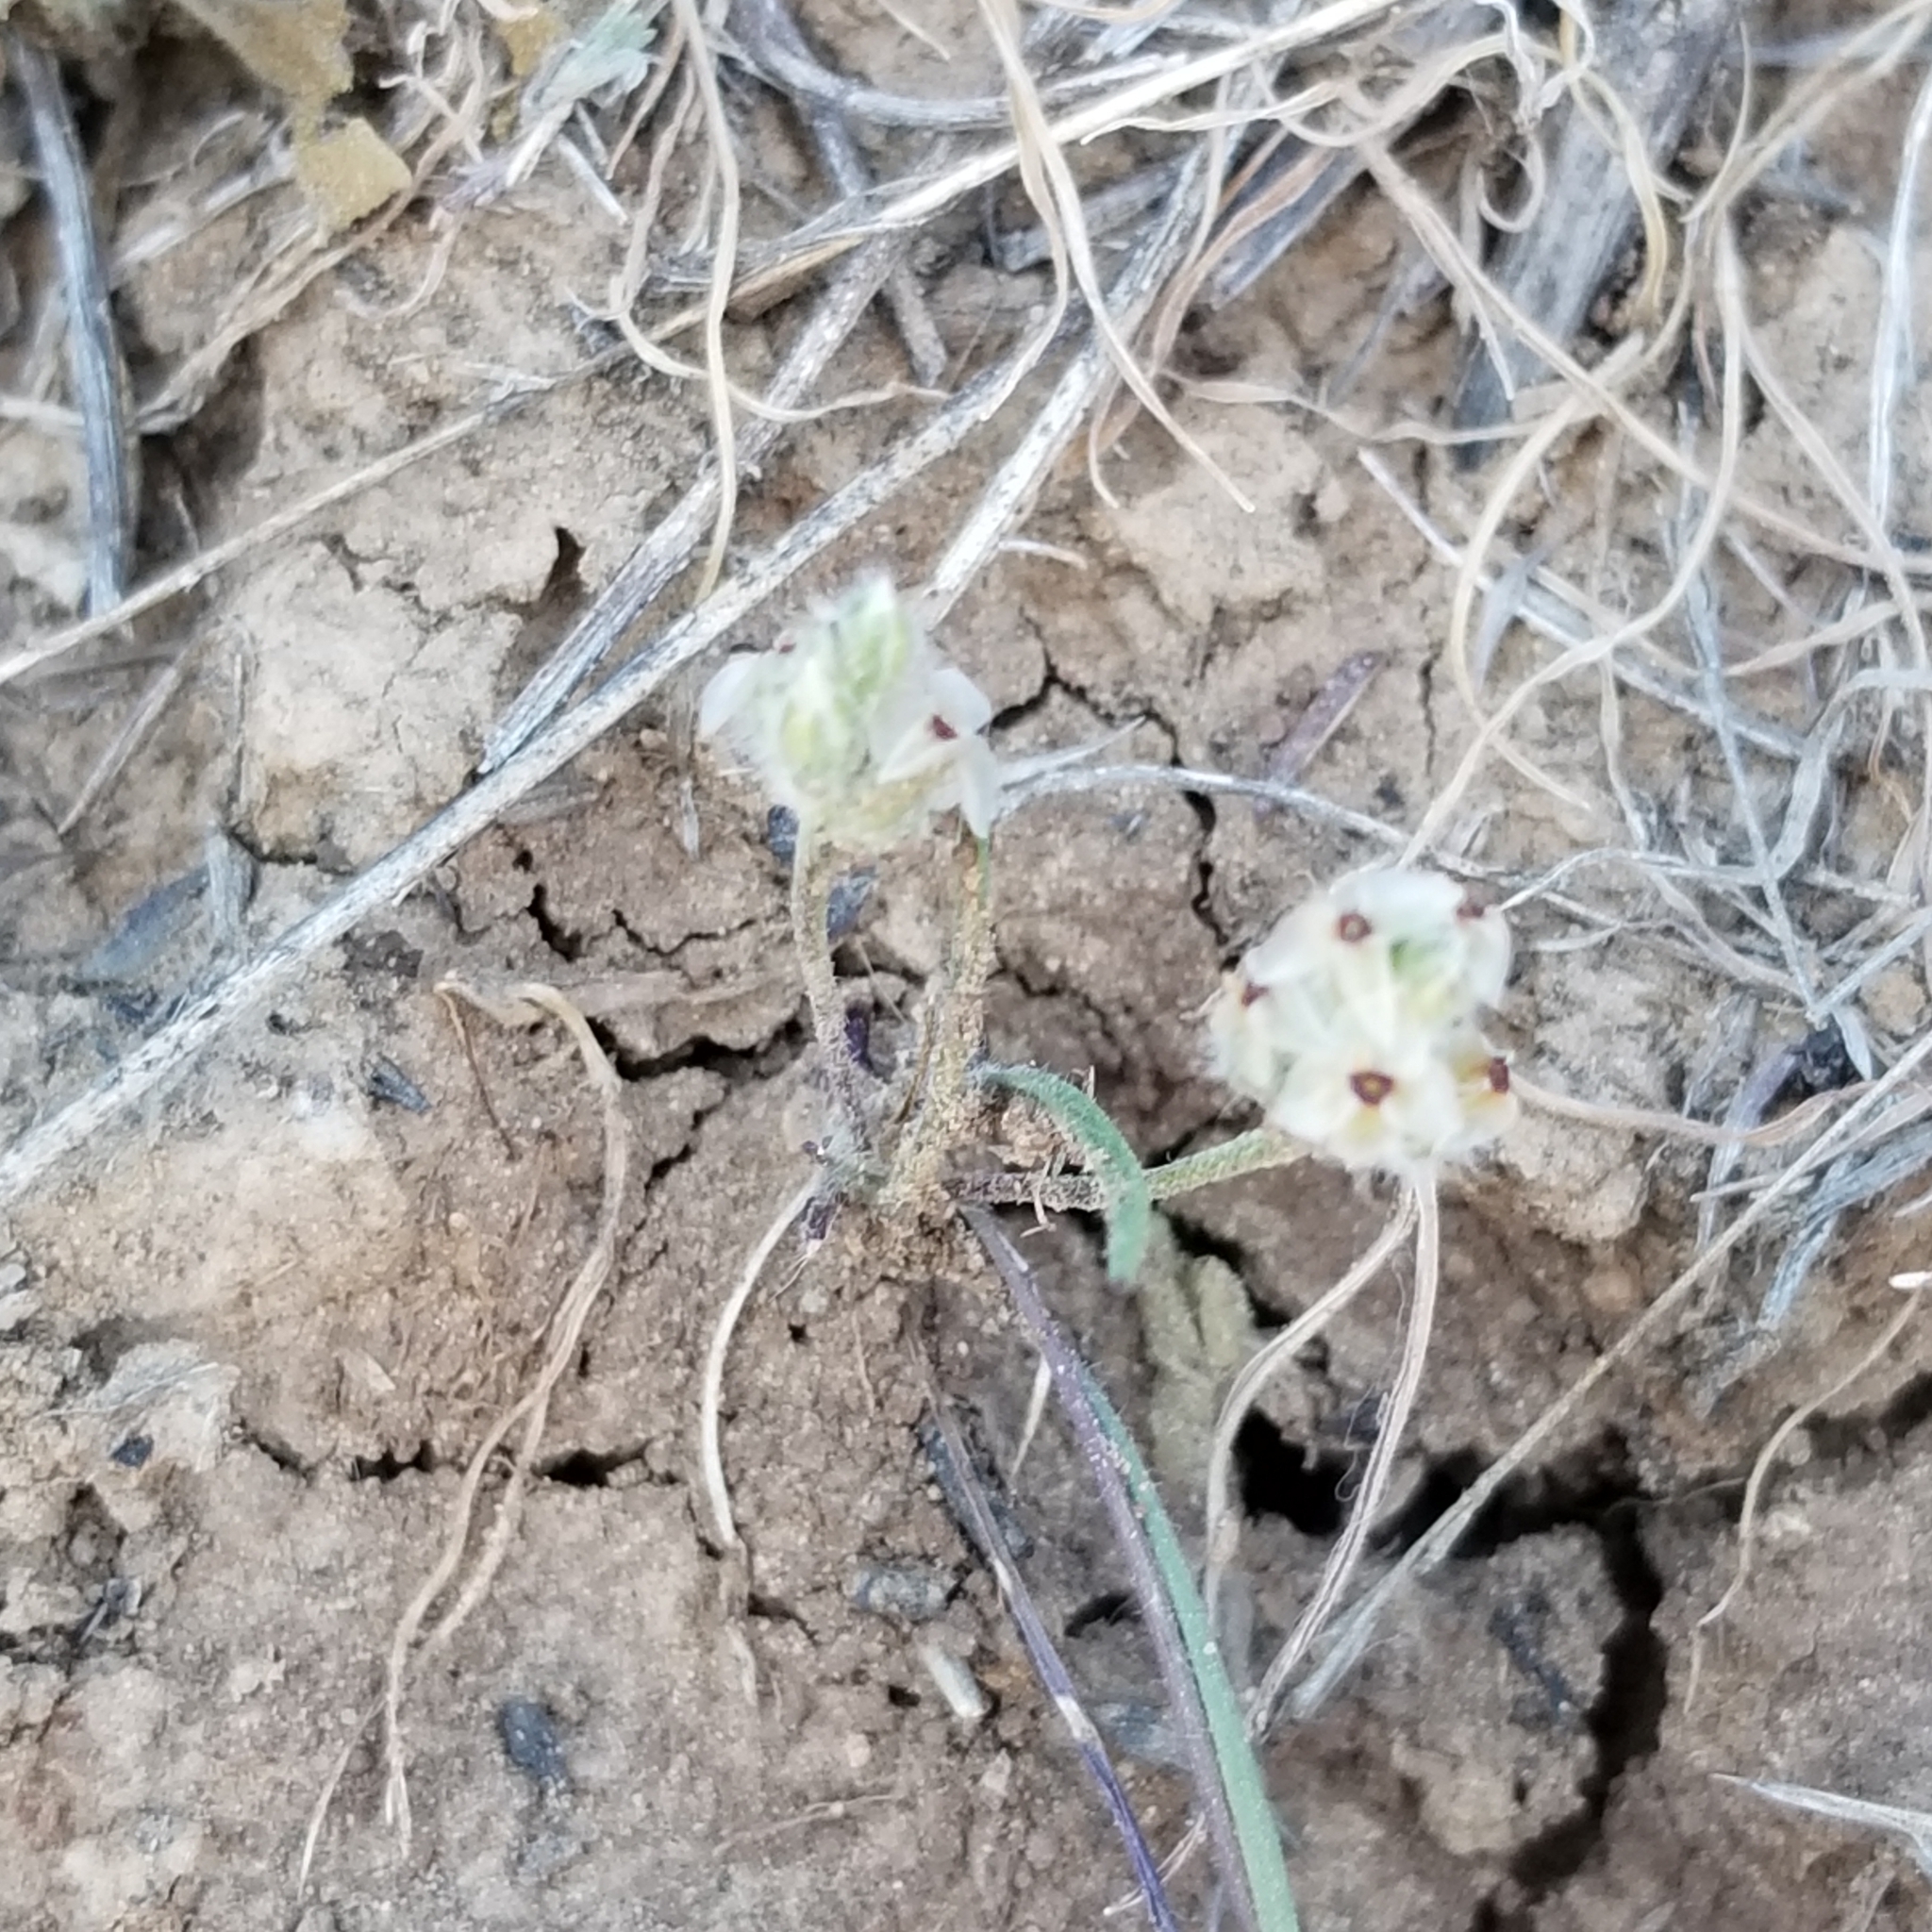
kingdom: Plantae
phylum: Tracheophyta
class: Magnoliopsida
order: Lamiales
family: Plantaginaceae
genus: Plantago
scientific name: Plantago erecta
